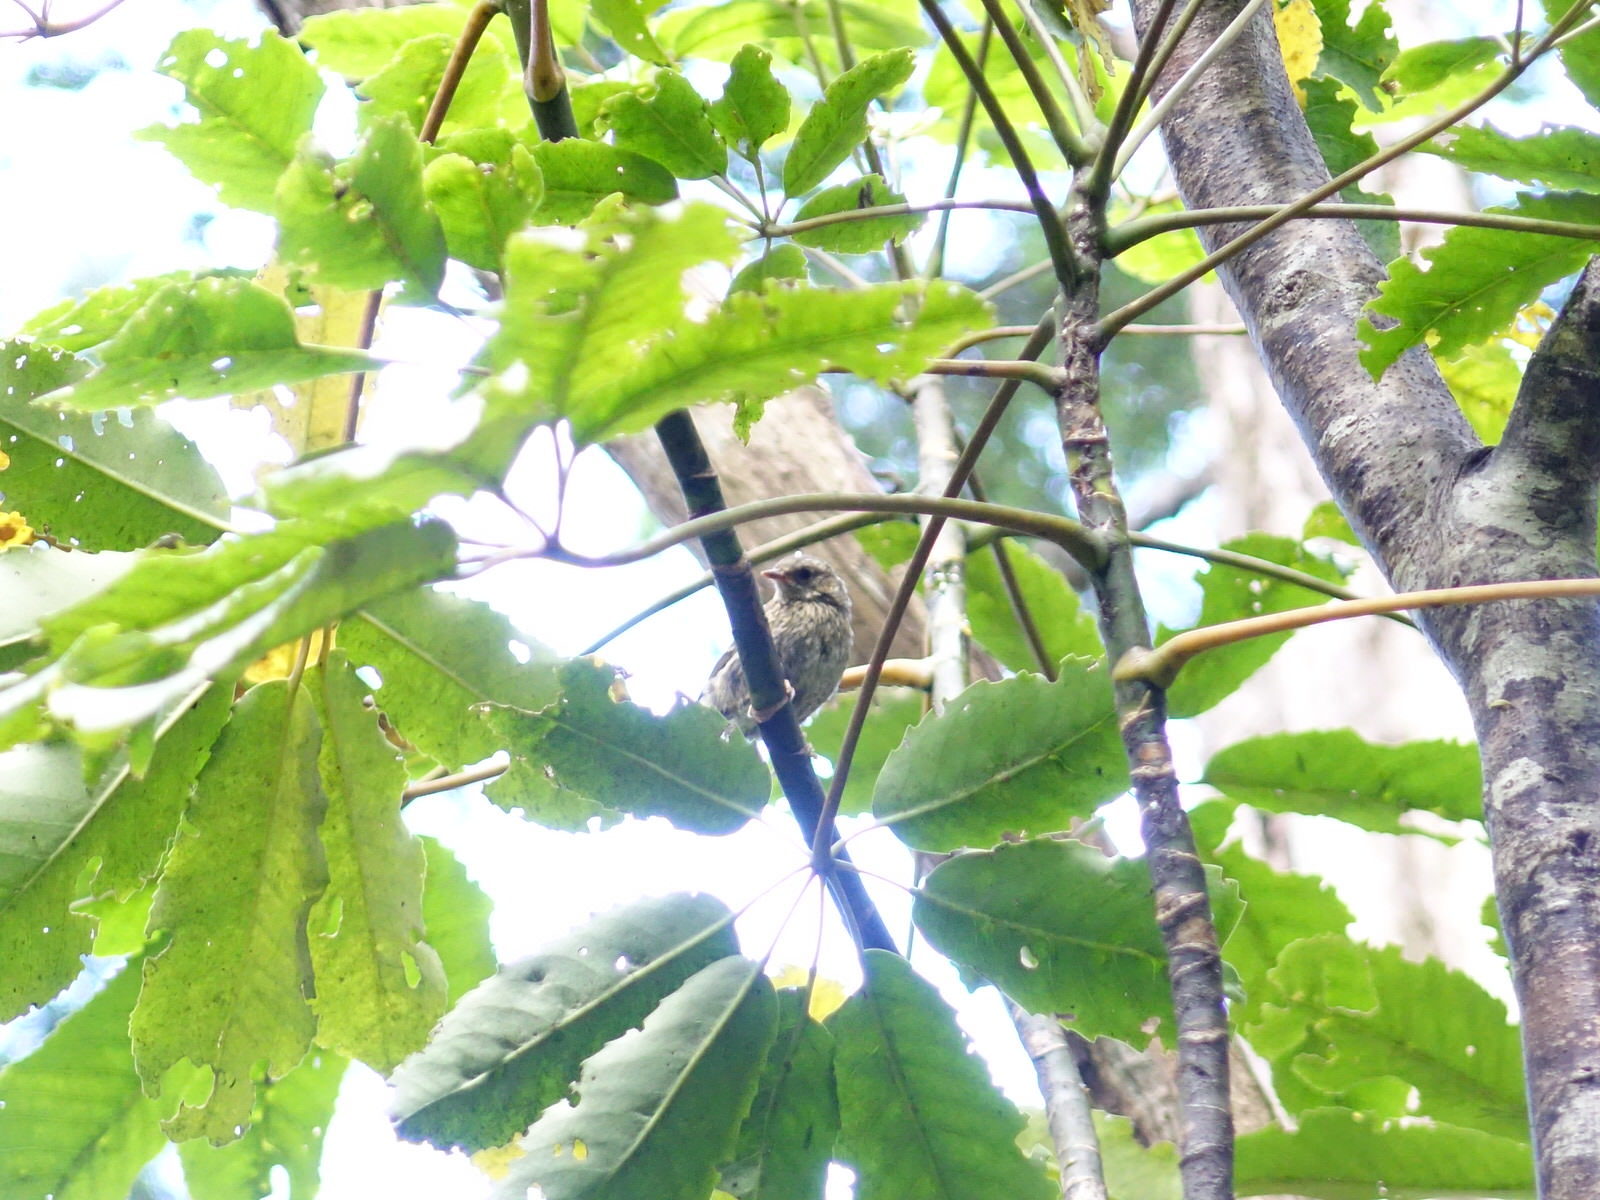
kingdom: Animalia
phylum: Chordata
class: Aves
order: Passeriformes
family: Prunellidae
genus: Prunella
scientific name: Prunella modularis
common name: Dunnock
